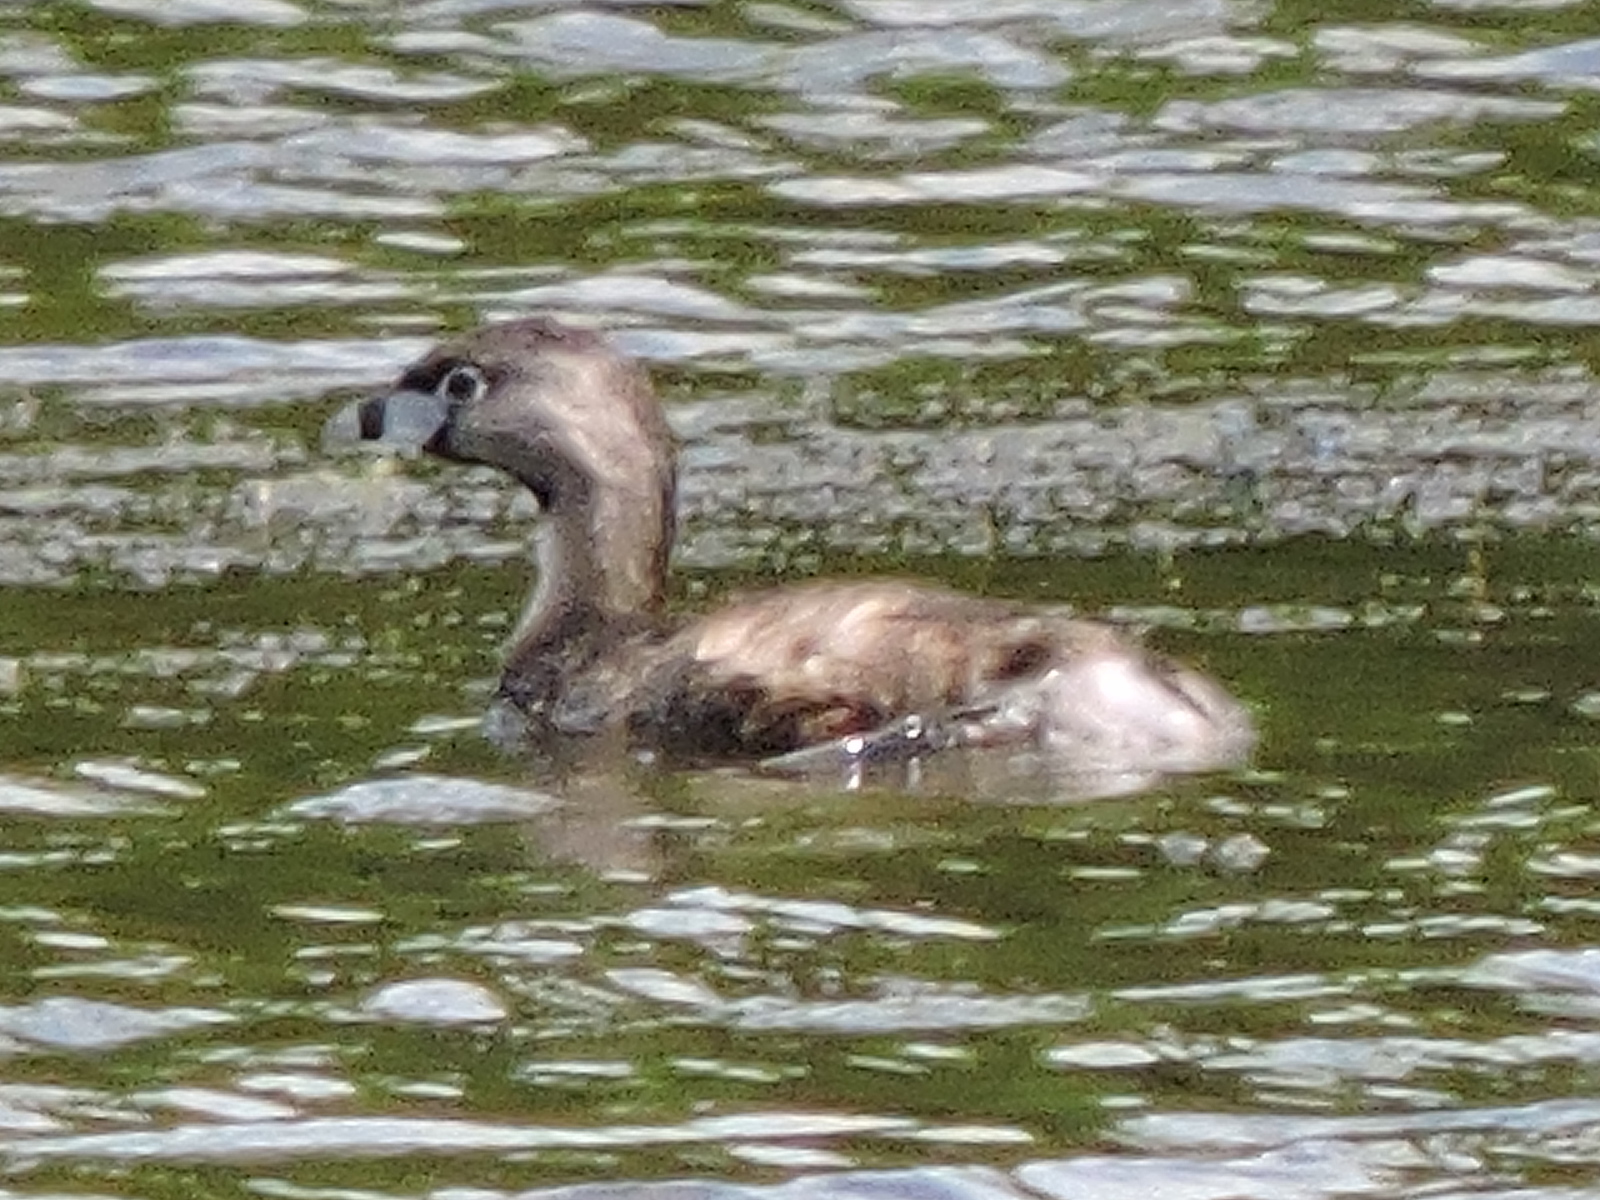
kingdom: Animalia
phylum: Chordata
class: Aves
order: Podicipediformes
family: Podicipedidae
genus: Podilymbus
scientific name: Podilymbus podiceps
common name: Pied-billed grebe
